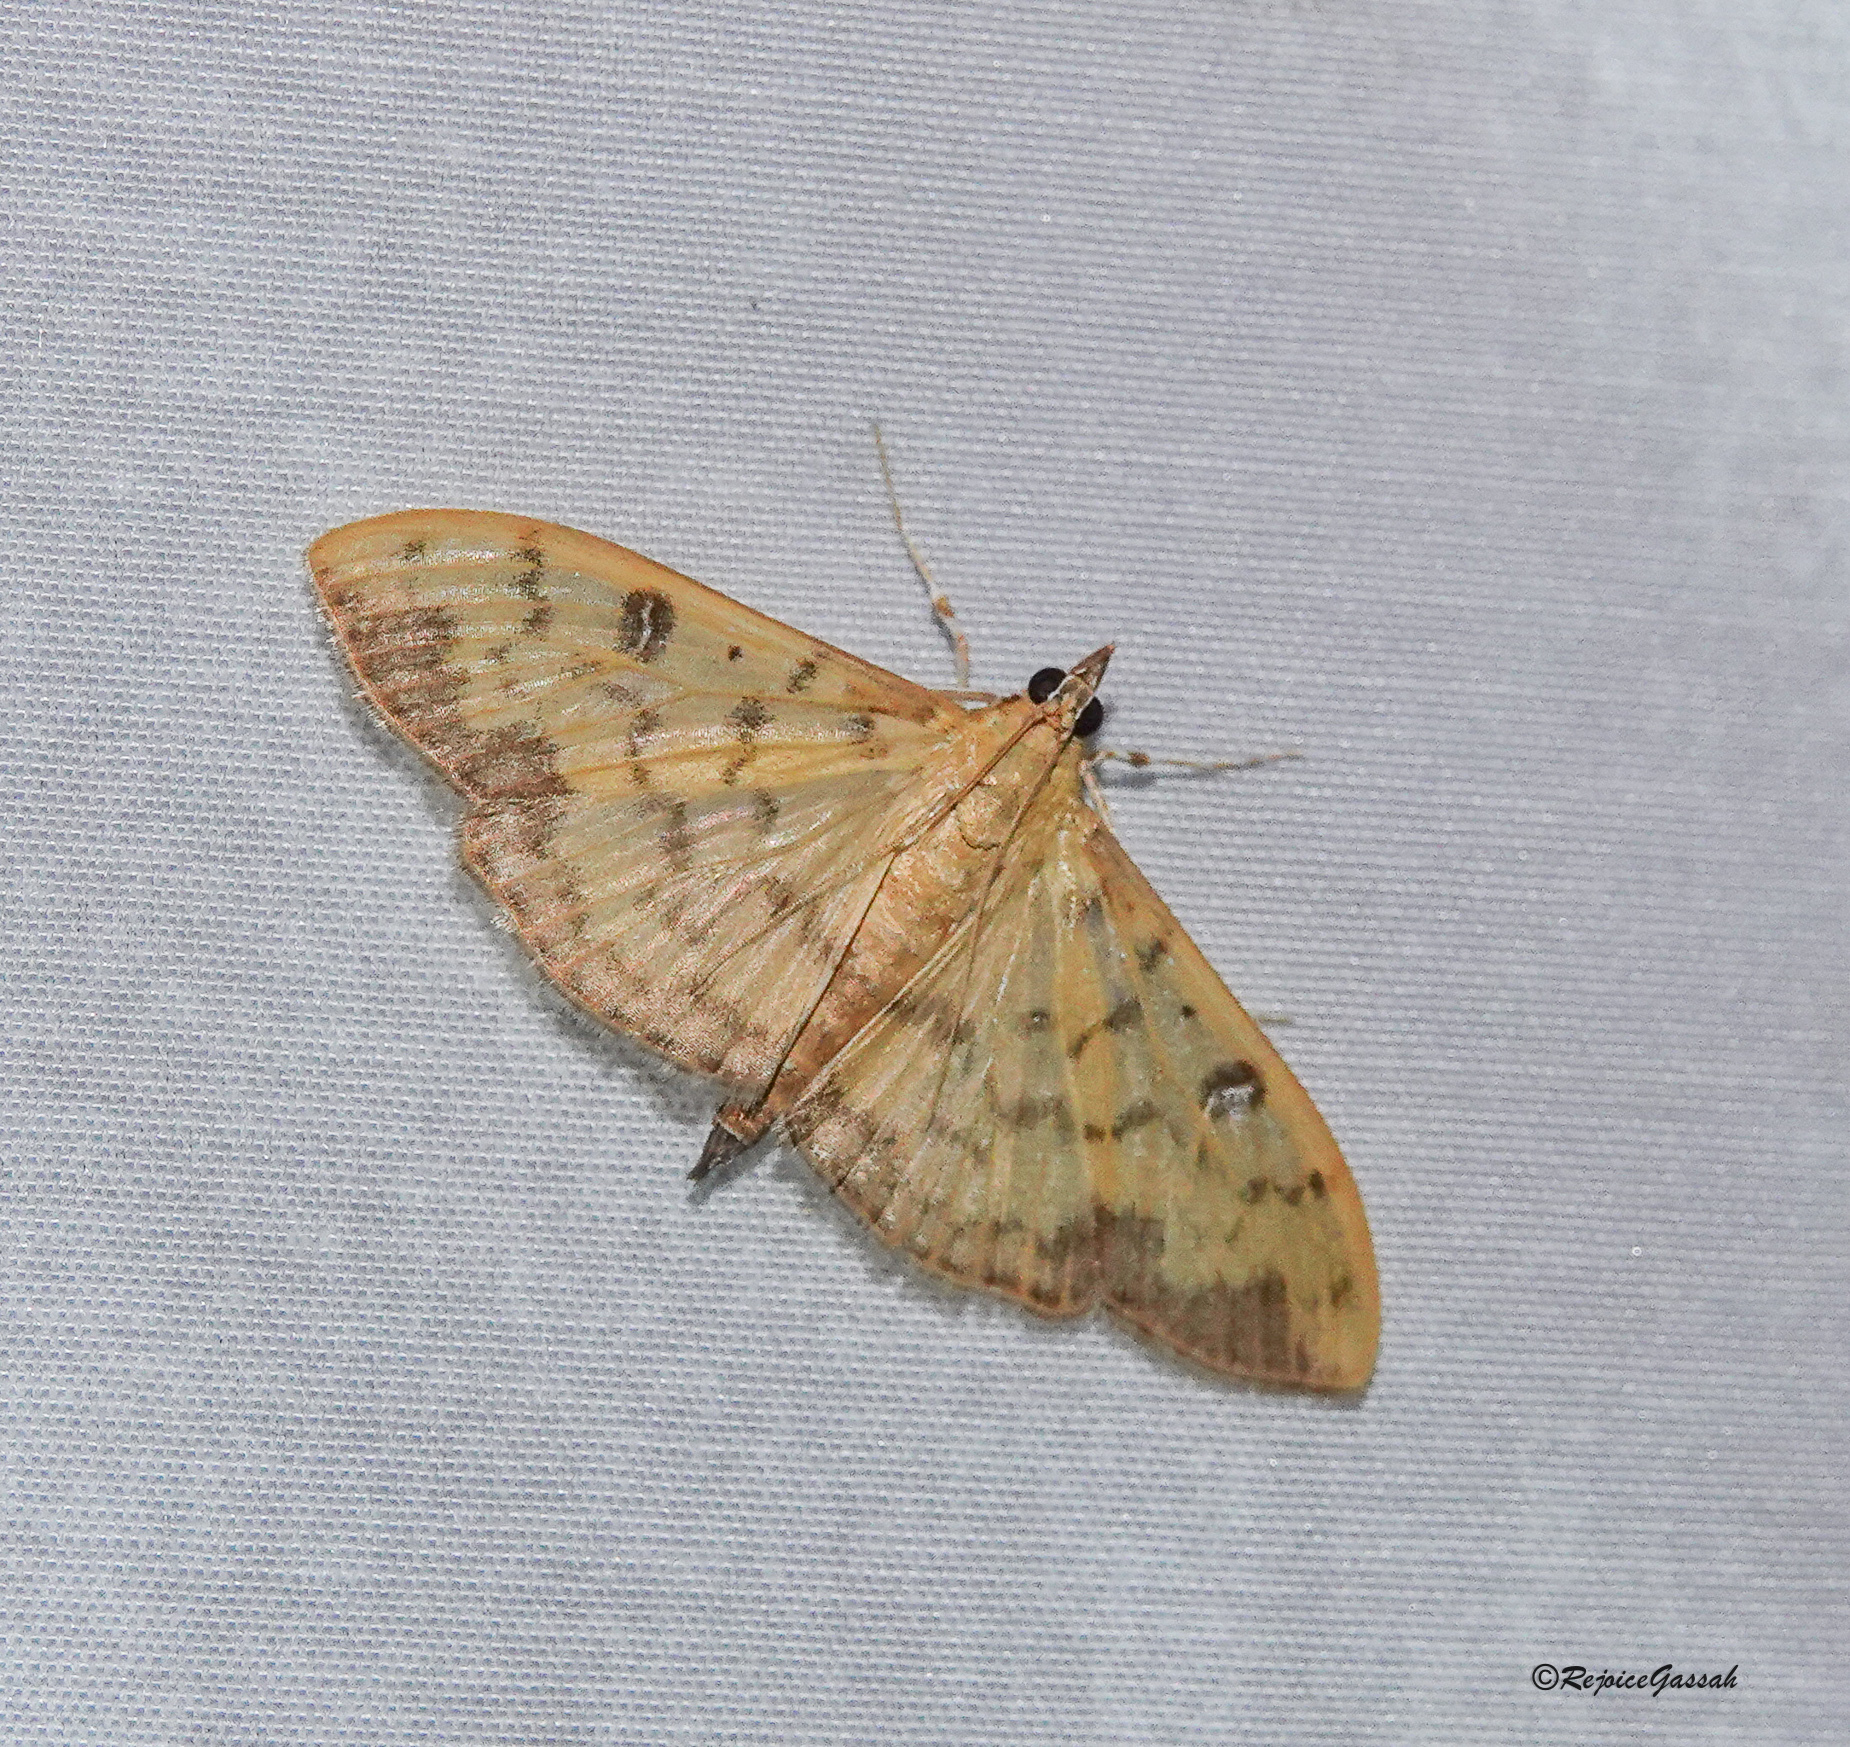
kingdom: Animalia
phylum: Arthropoda
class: Insecta
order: Lepidoptera
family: Crambidae
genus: Botyodes
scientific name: Botyodes diniasalis
